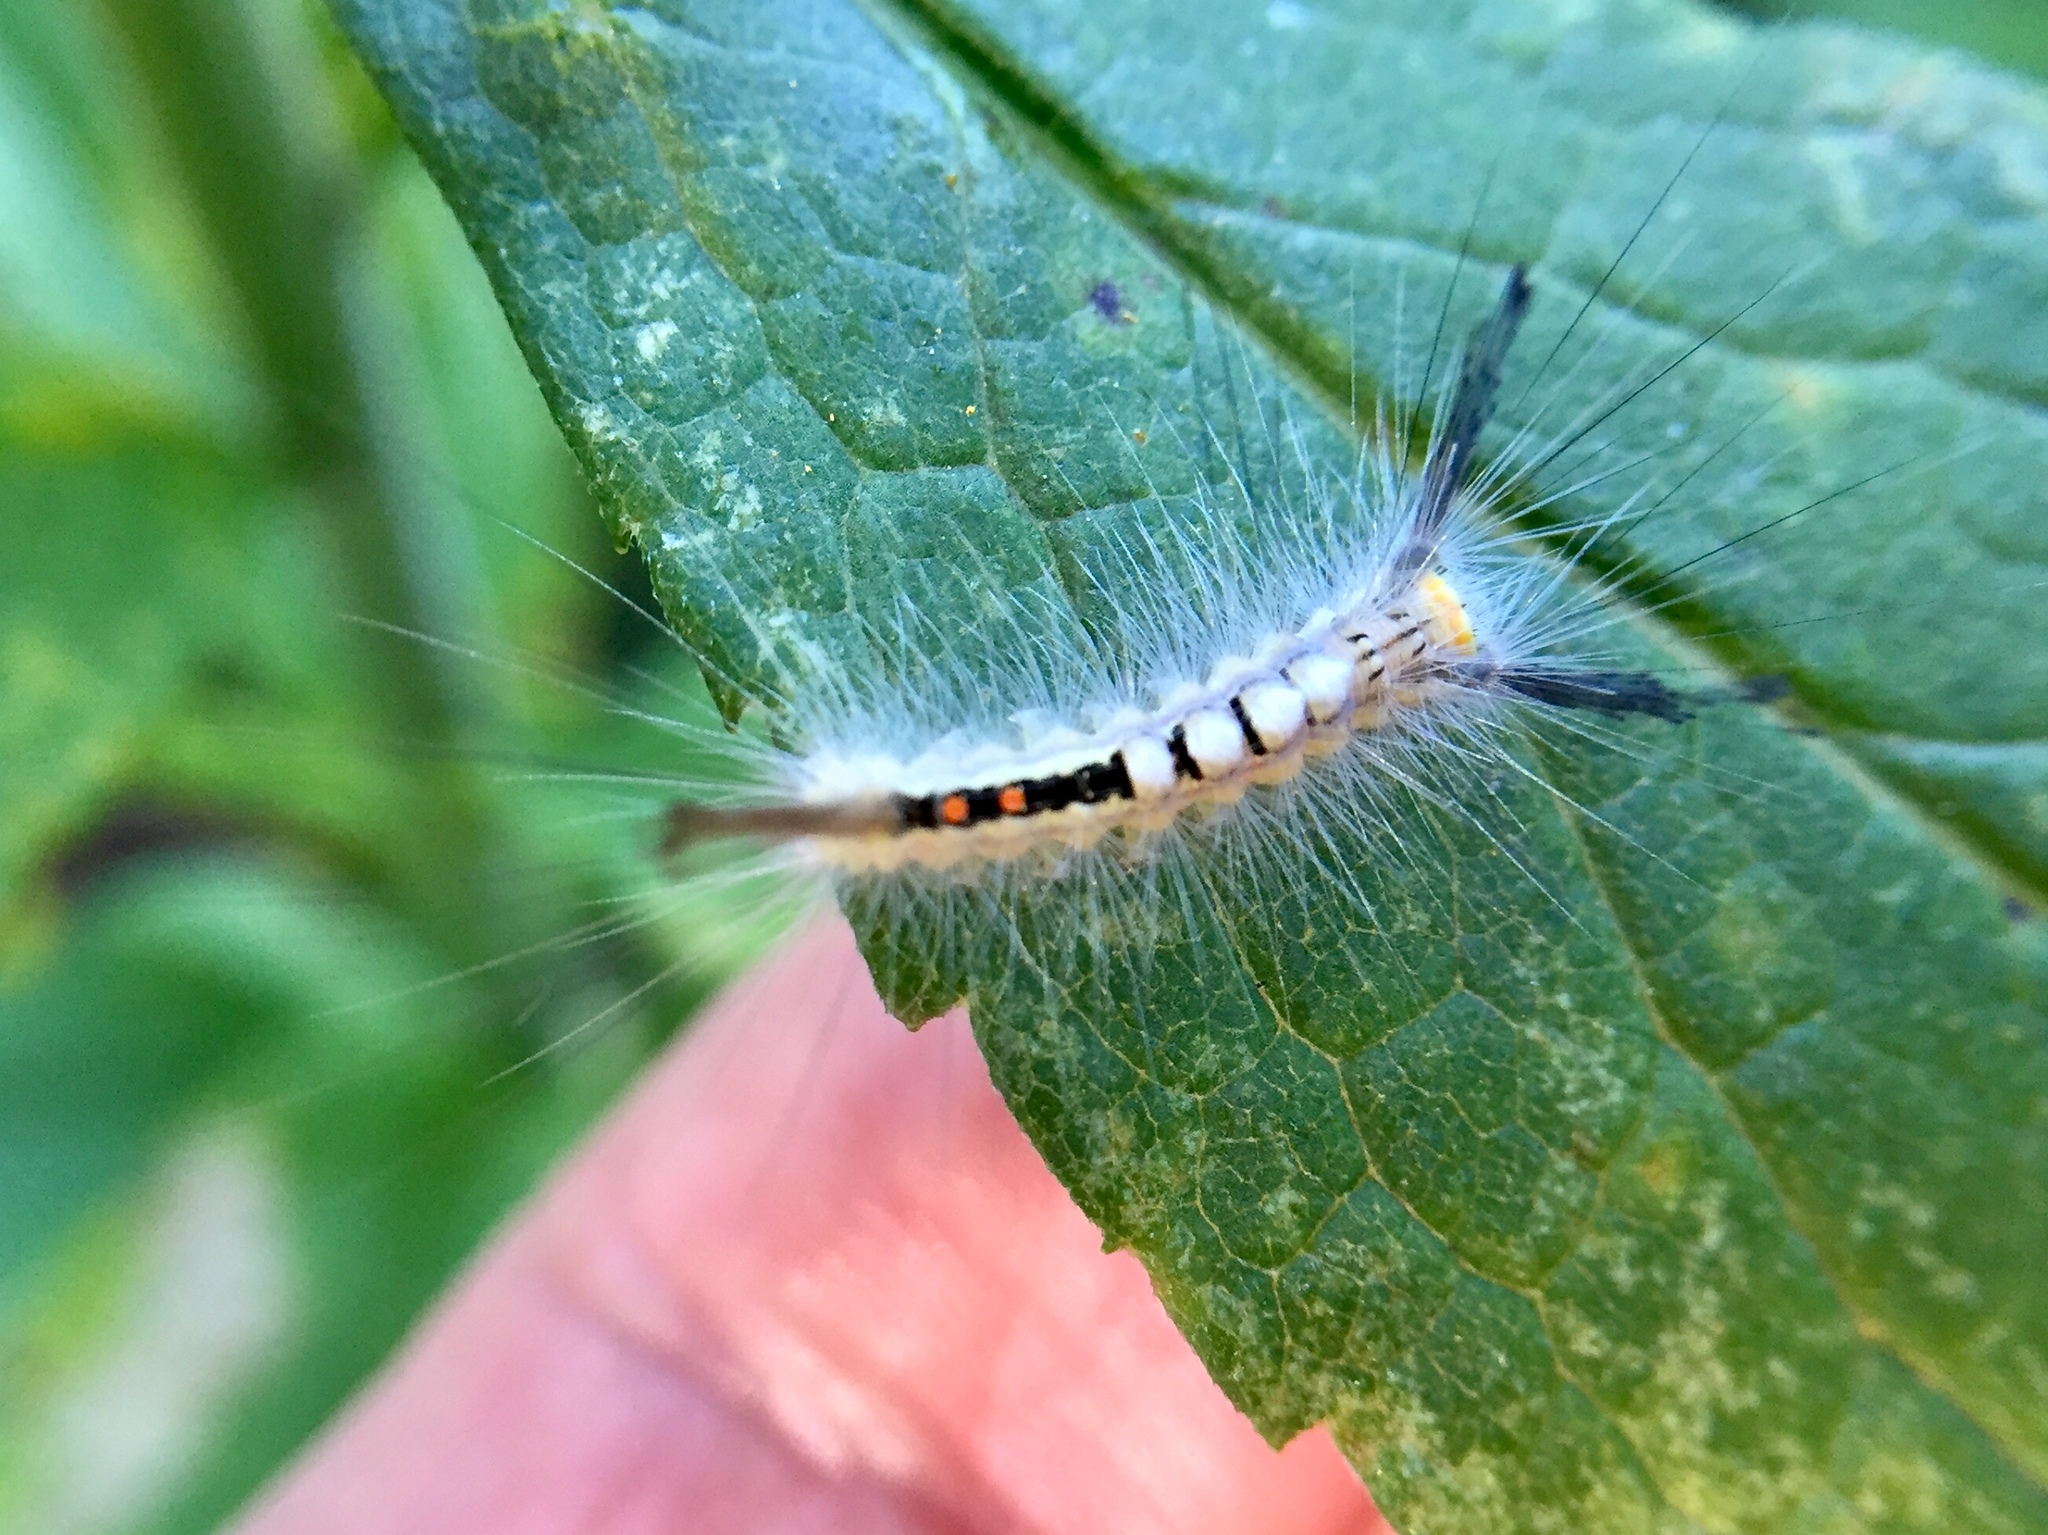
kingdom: Animalia
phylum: Arthropoda
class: Insecta
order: Lepidoptera
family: Erebidae
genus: Orgyia
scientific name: Orgyia leucostigma
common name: White-marked tussock moth
